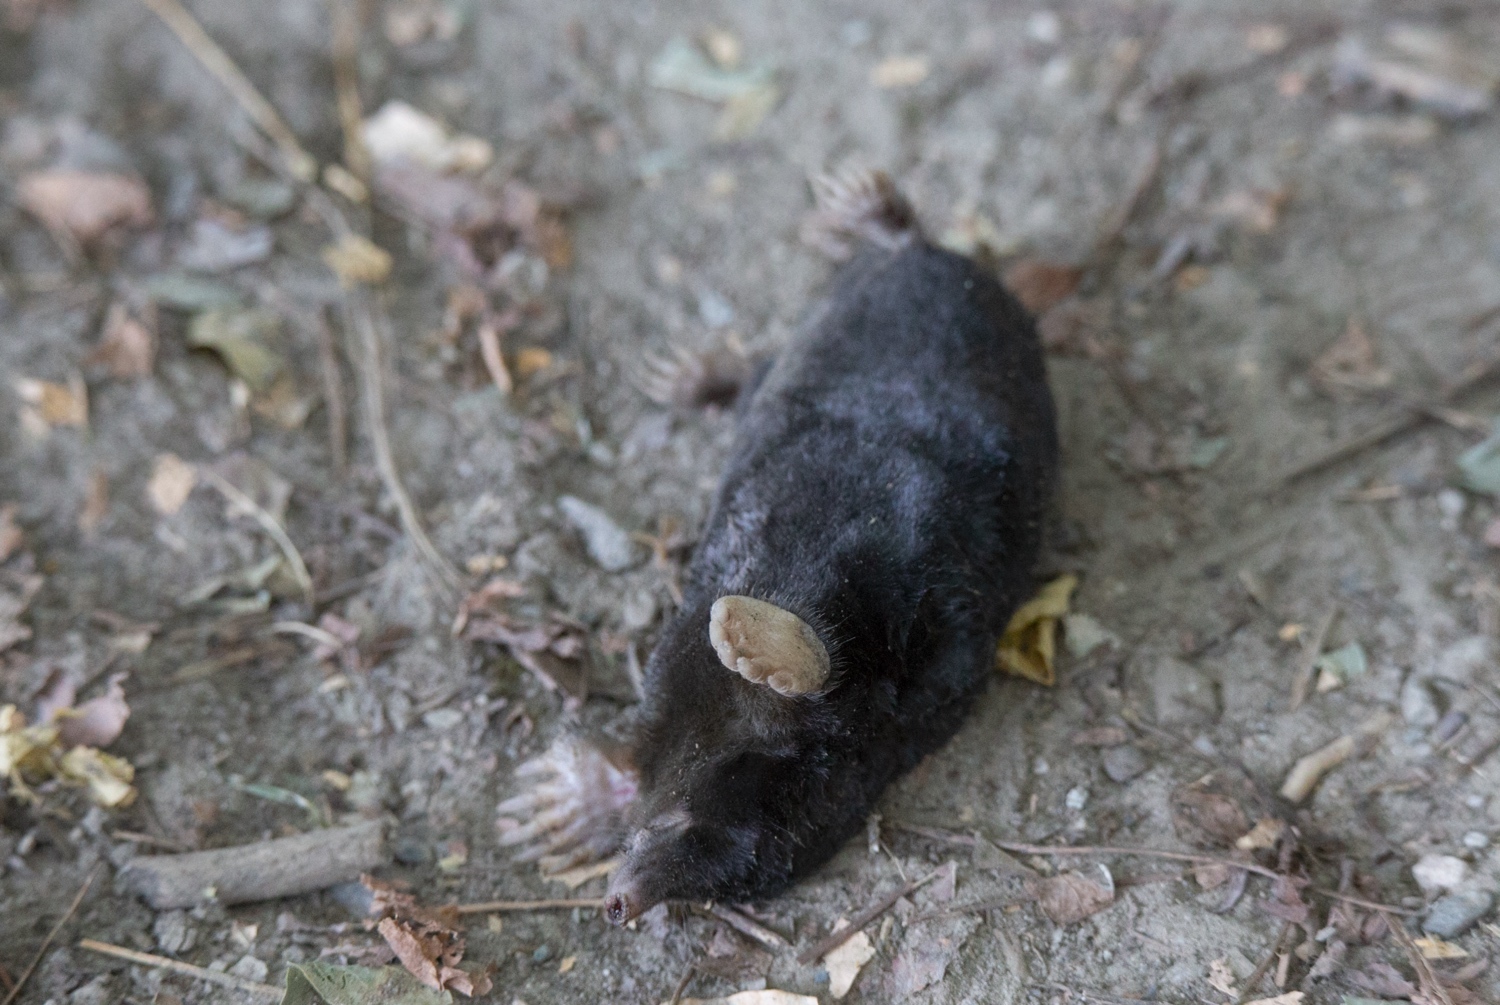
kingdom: Animalia
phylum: Chordata
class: Mammalia
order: Soricomorpha
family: Talpidae
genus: Talpa
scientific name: Talpa europaea
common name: European mole
